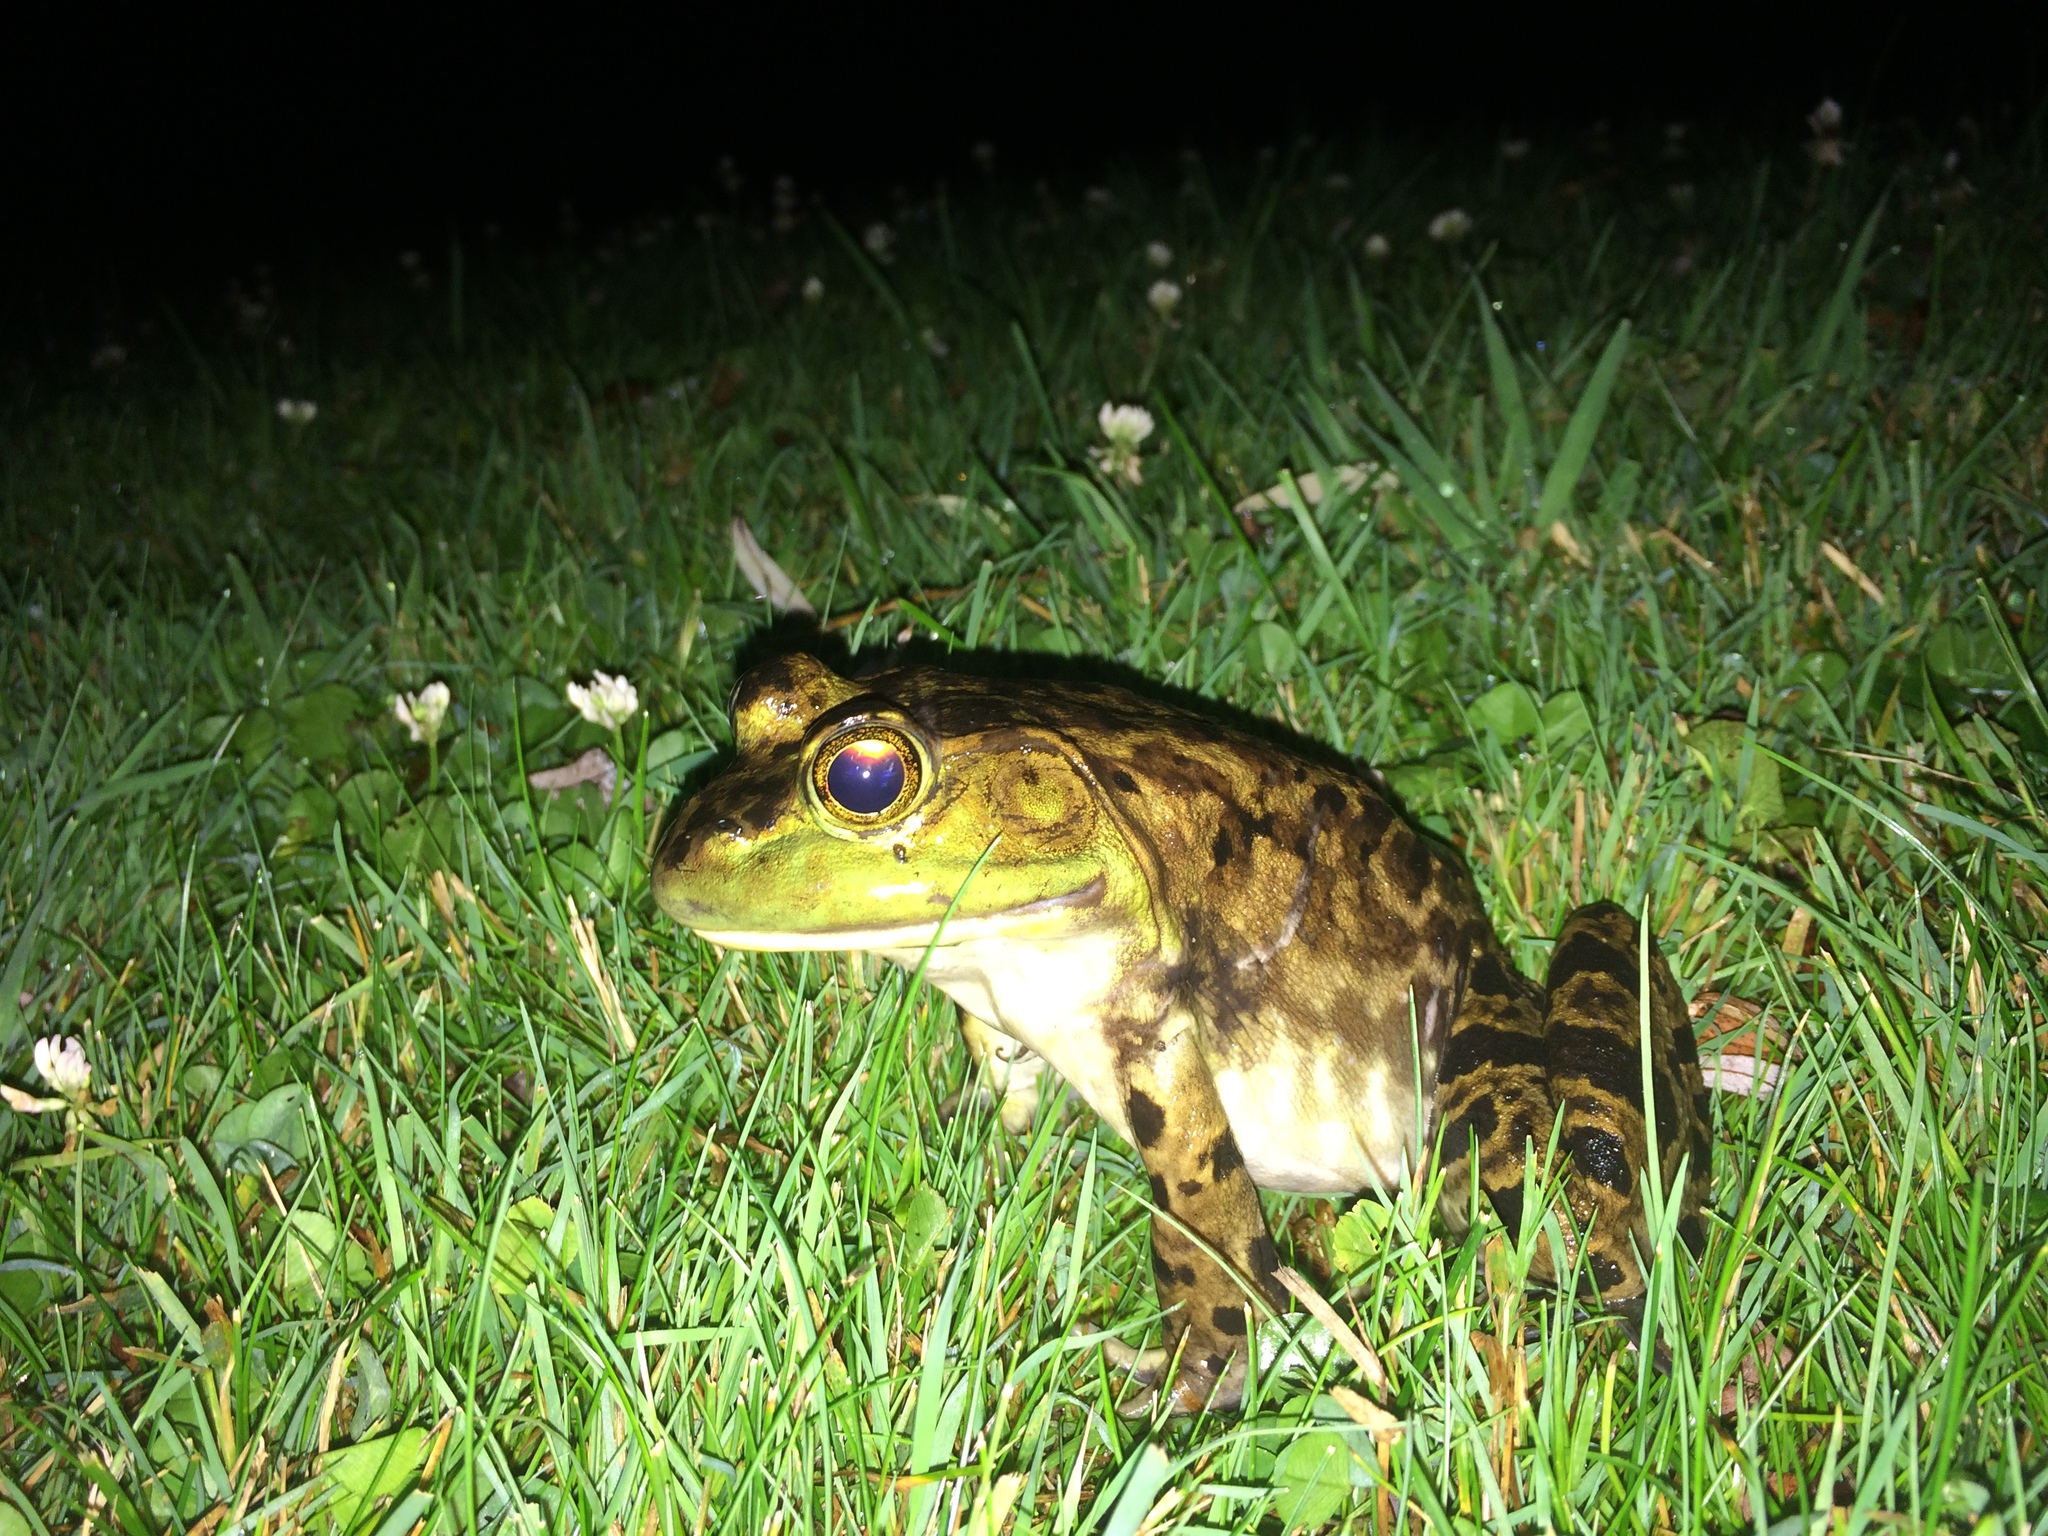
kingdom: Animalia
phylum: Chordata
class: Amphibia
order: Anura
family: Ranidae
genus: Lithobates
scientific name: Lithobates catesbeianus
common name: American bullfrog
